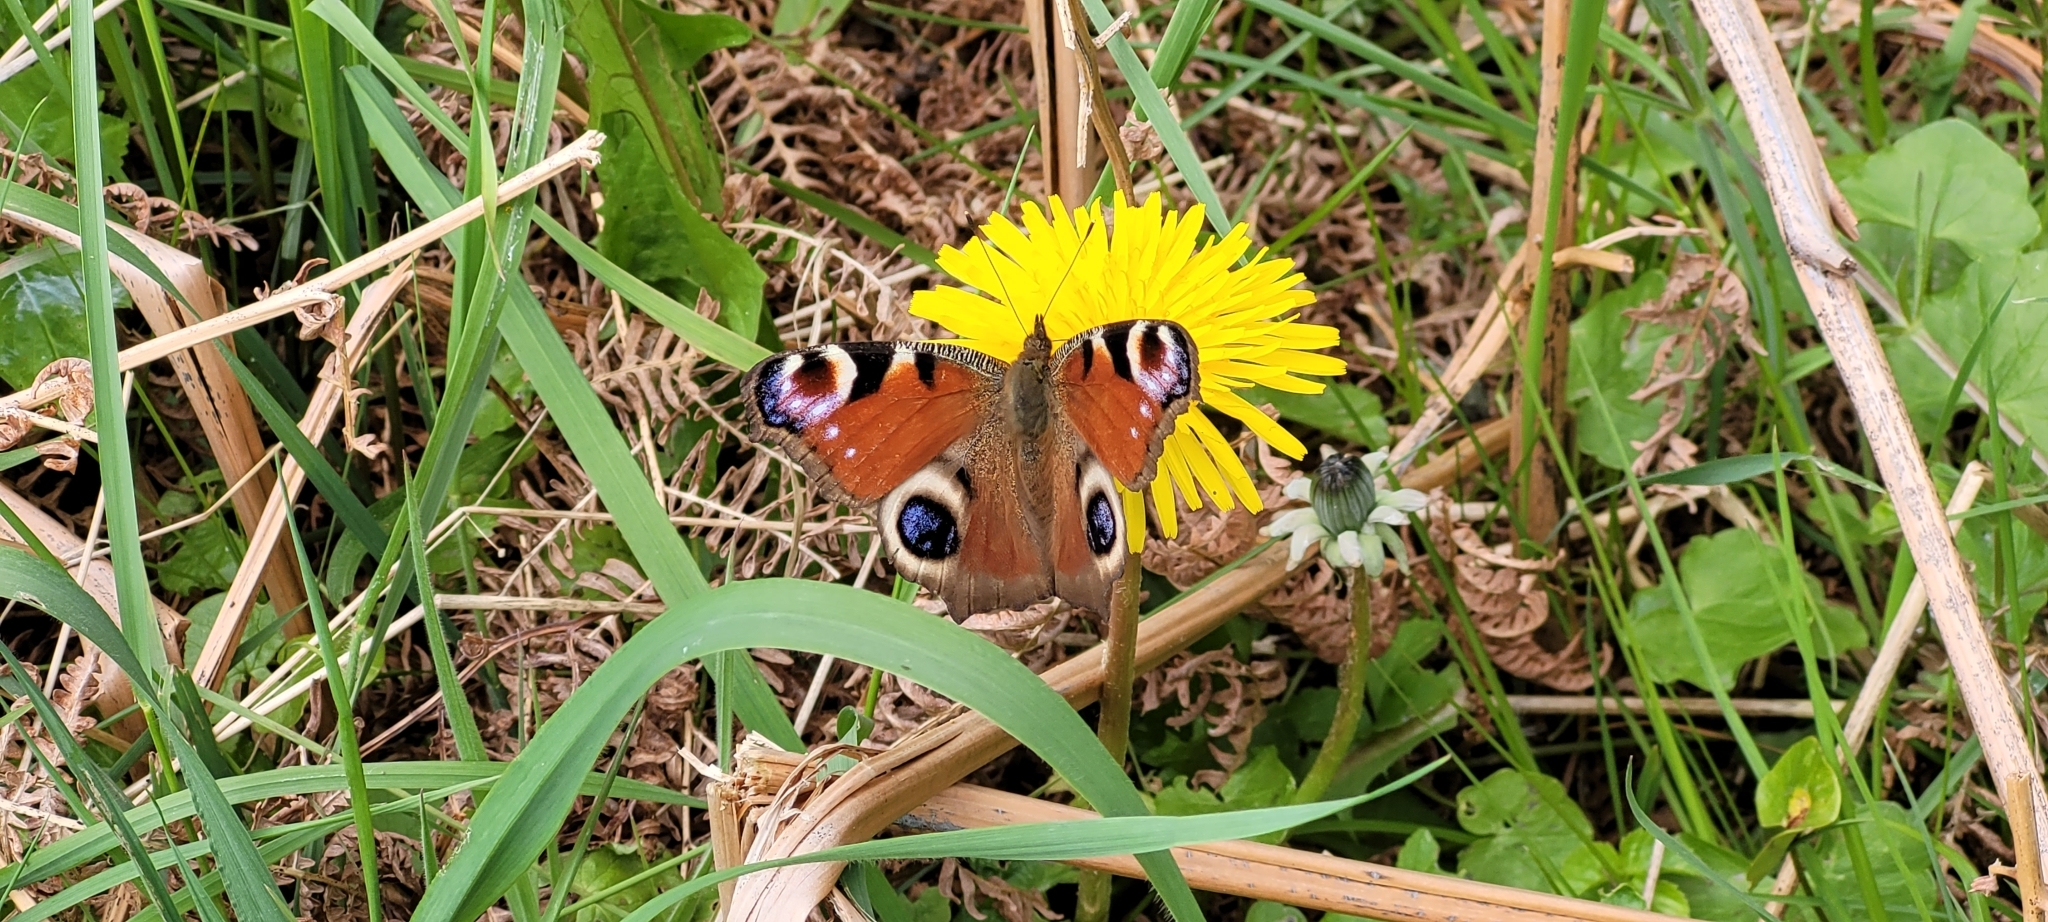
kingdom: Animalia
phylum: Arthropoda
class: Insecta
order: Lepidoptera
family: Nymphalidae
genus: Aglais
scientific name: Aglais io
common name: Peacock
